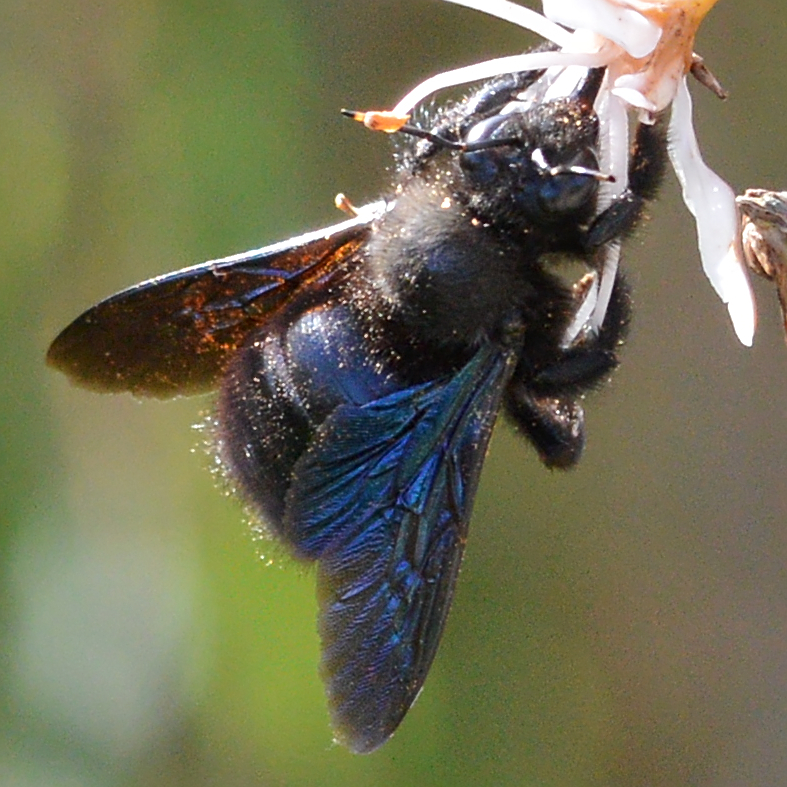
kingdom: Animalia
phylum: Arthropoda
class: Insecta
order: Hymenoptera
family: Apidae
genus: Xylocopa
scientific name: Xylocopa violacea
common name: Violet carpenter bee
